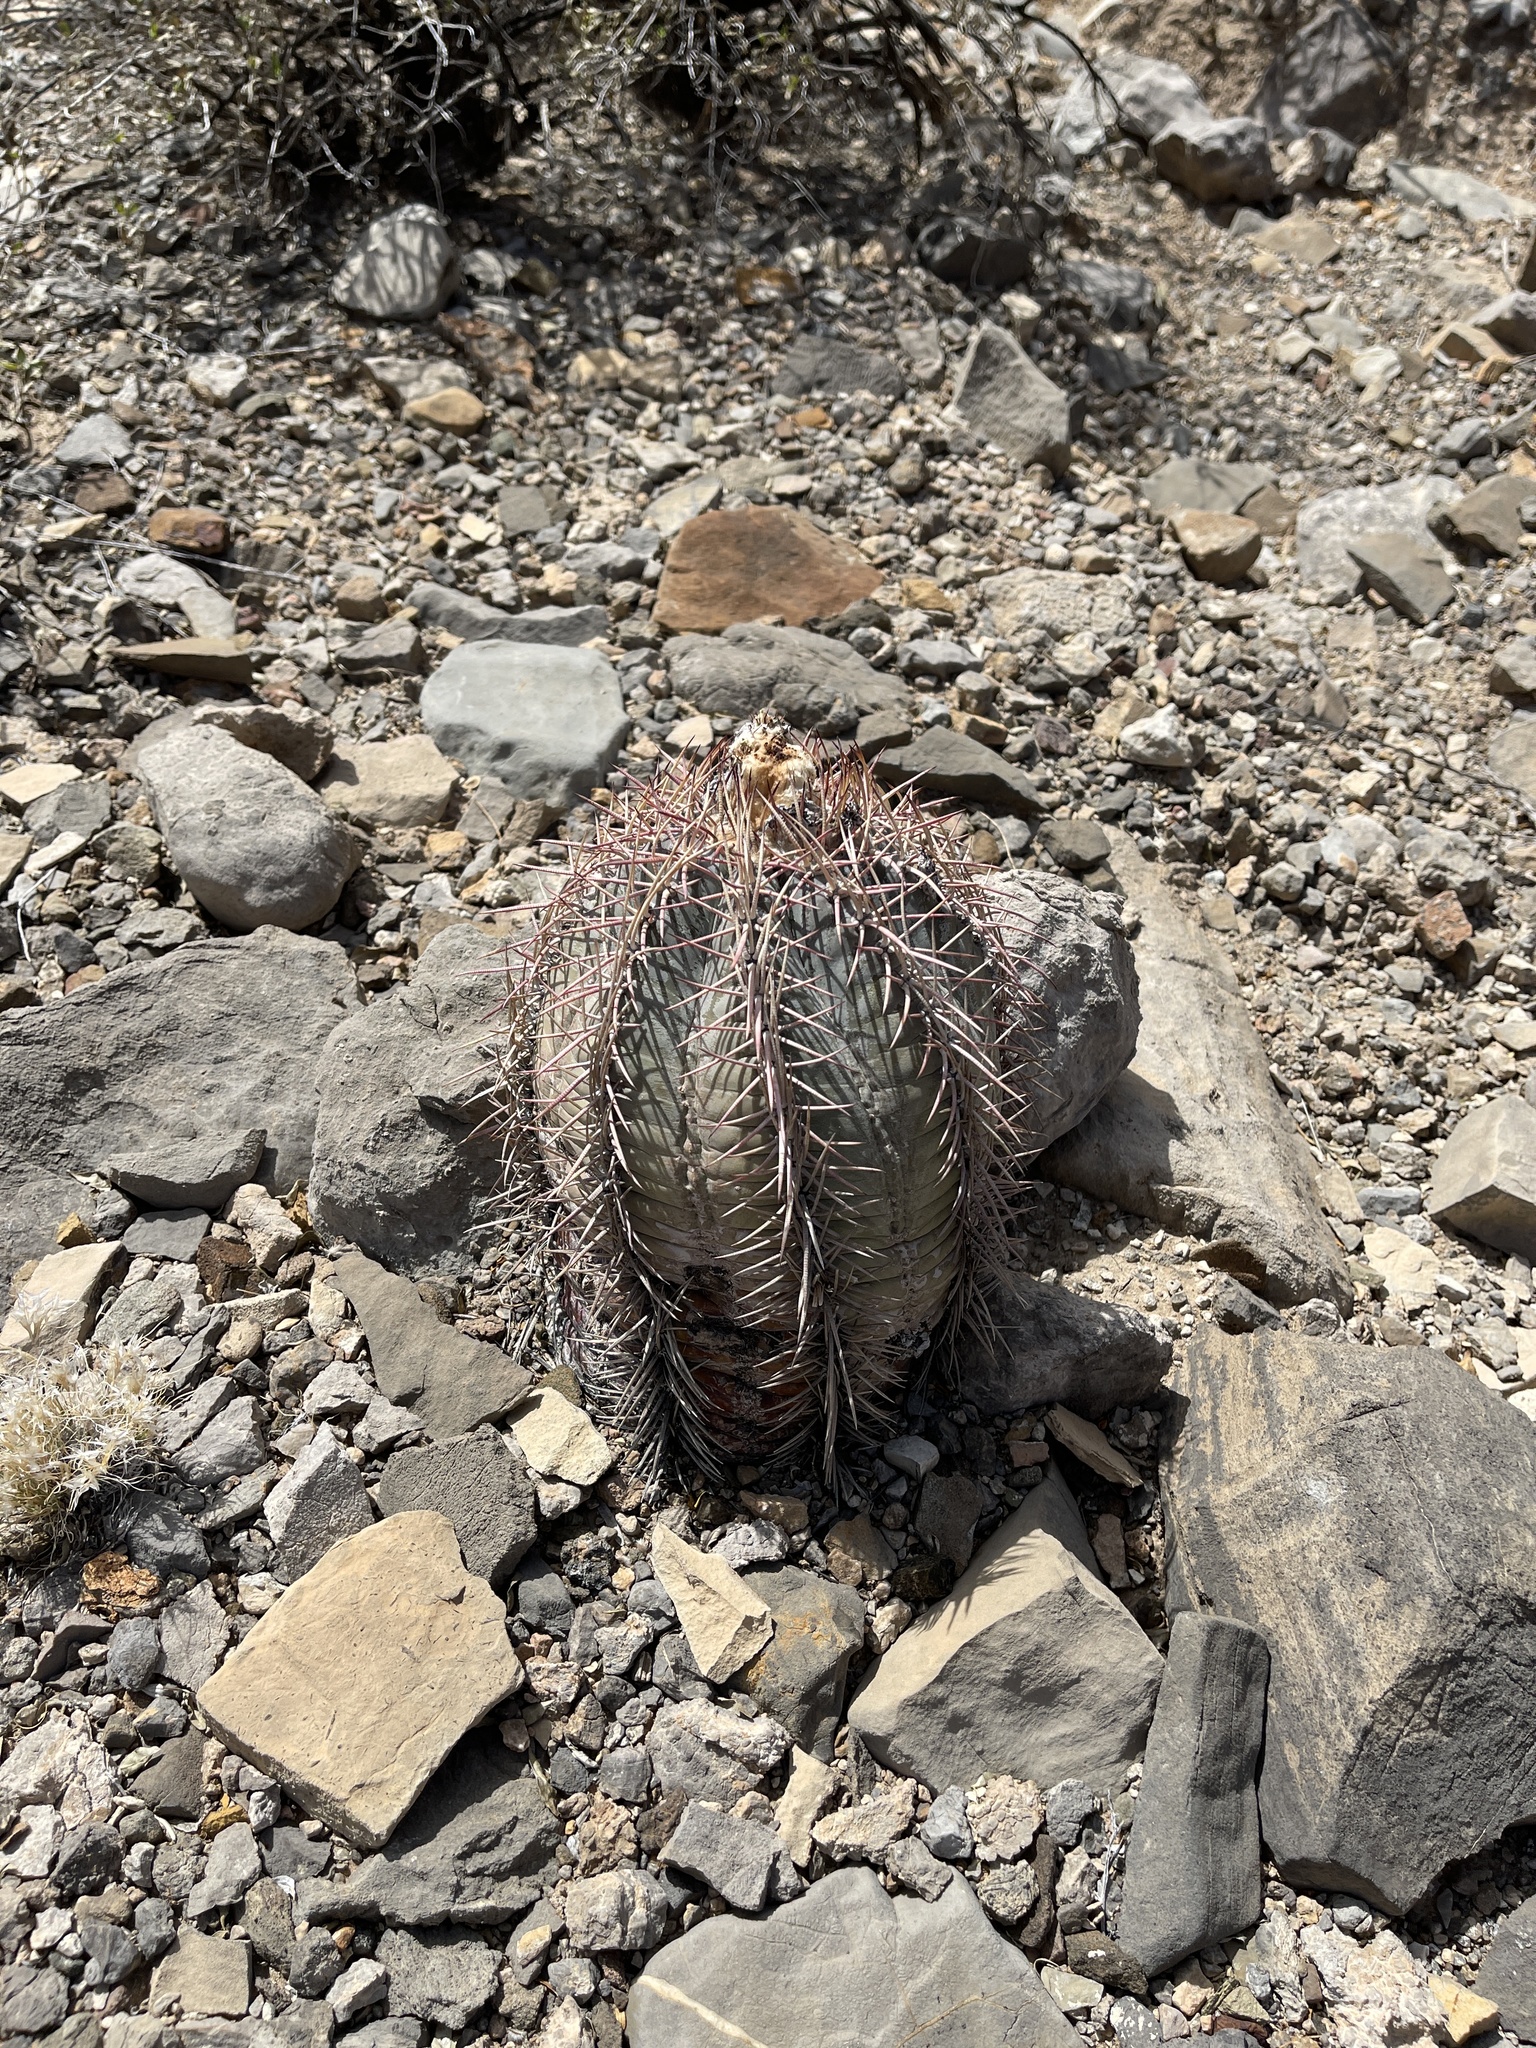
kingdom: Plantae
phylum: Tracheophyta
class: Magnoliopsida
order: Caryophyllales
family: Cactaceae
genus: Echinocactus
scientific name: Echinocactus horizonthalonius
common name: Devilshead
